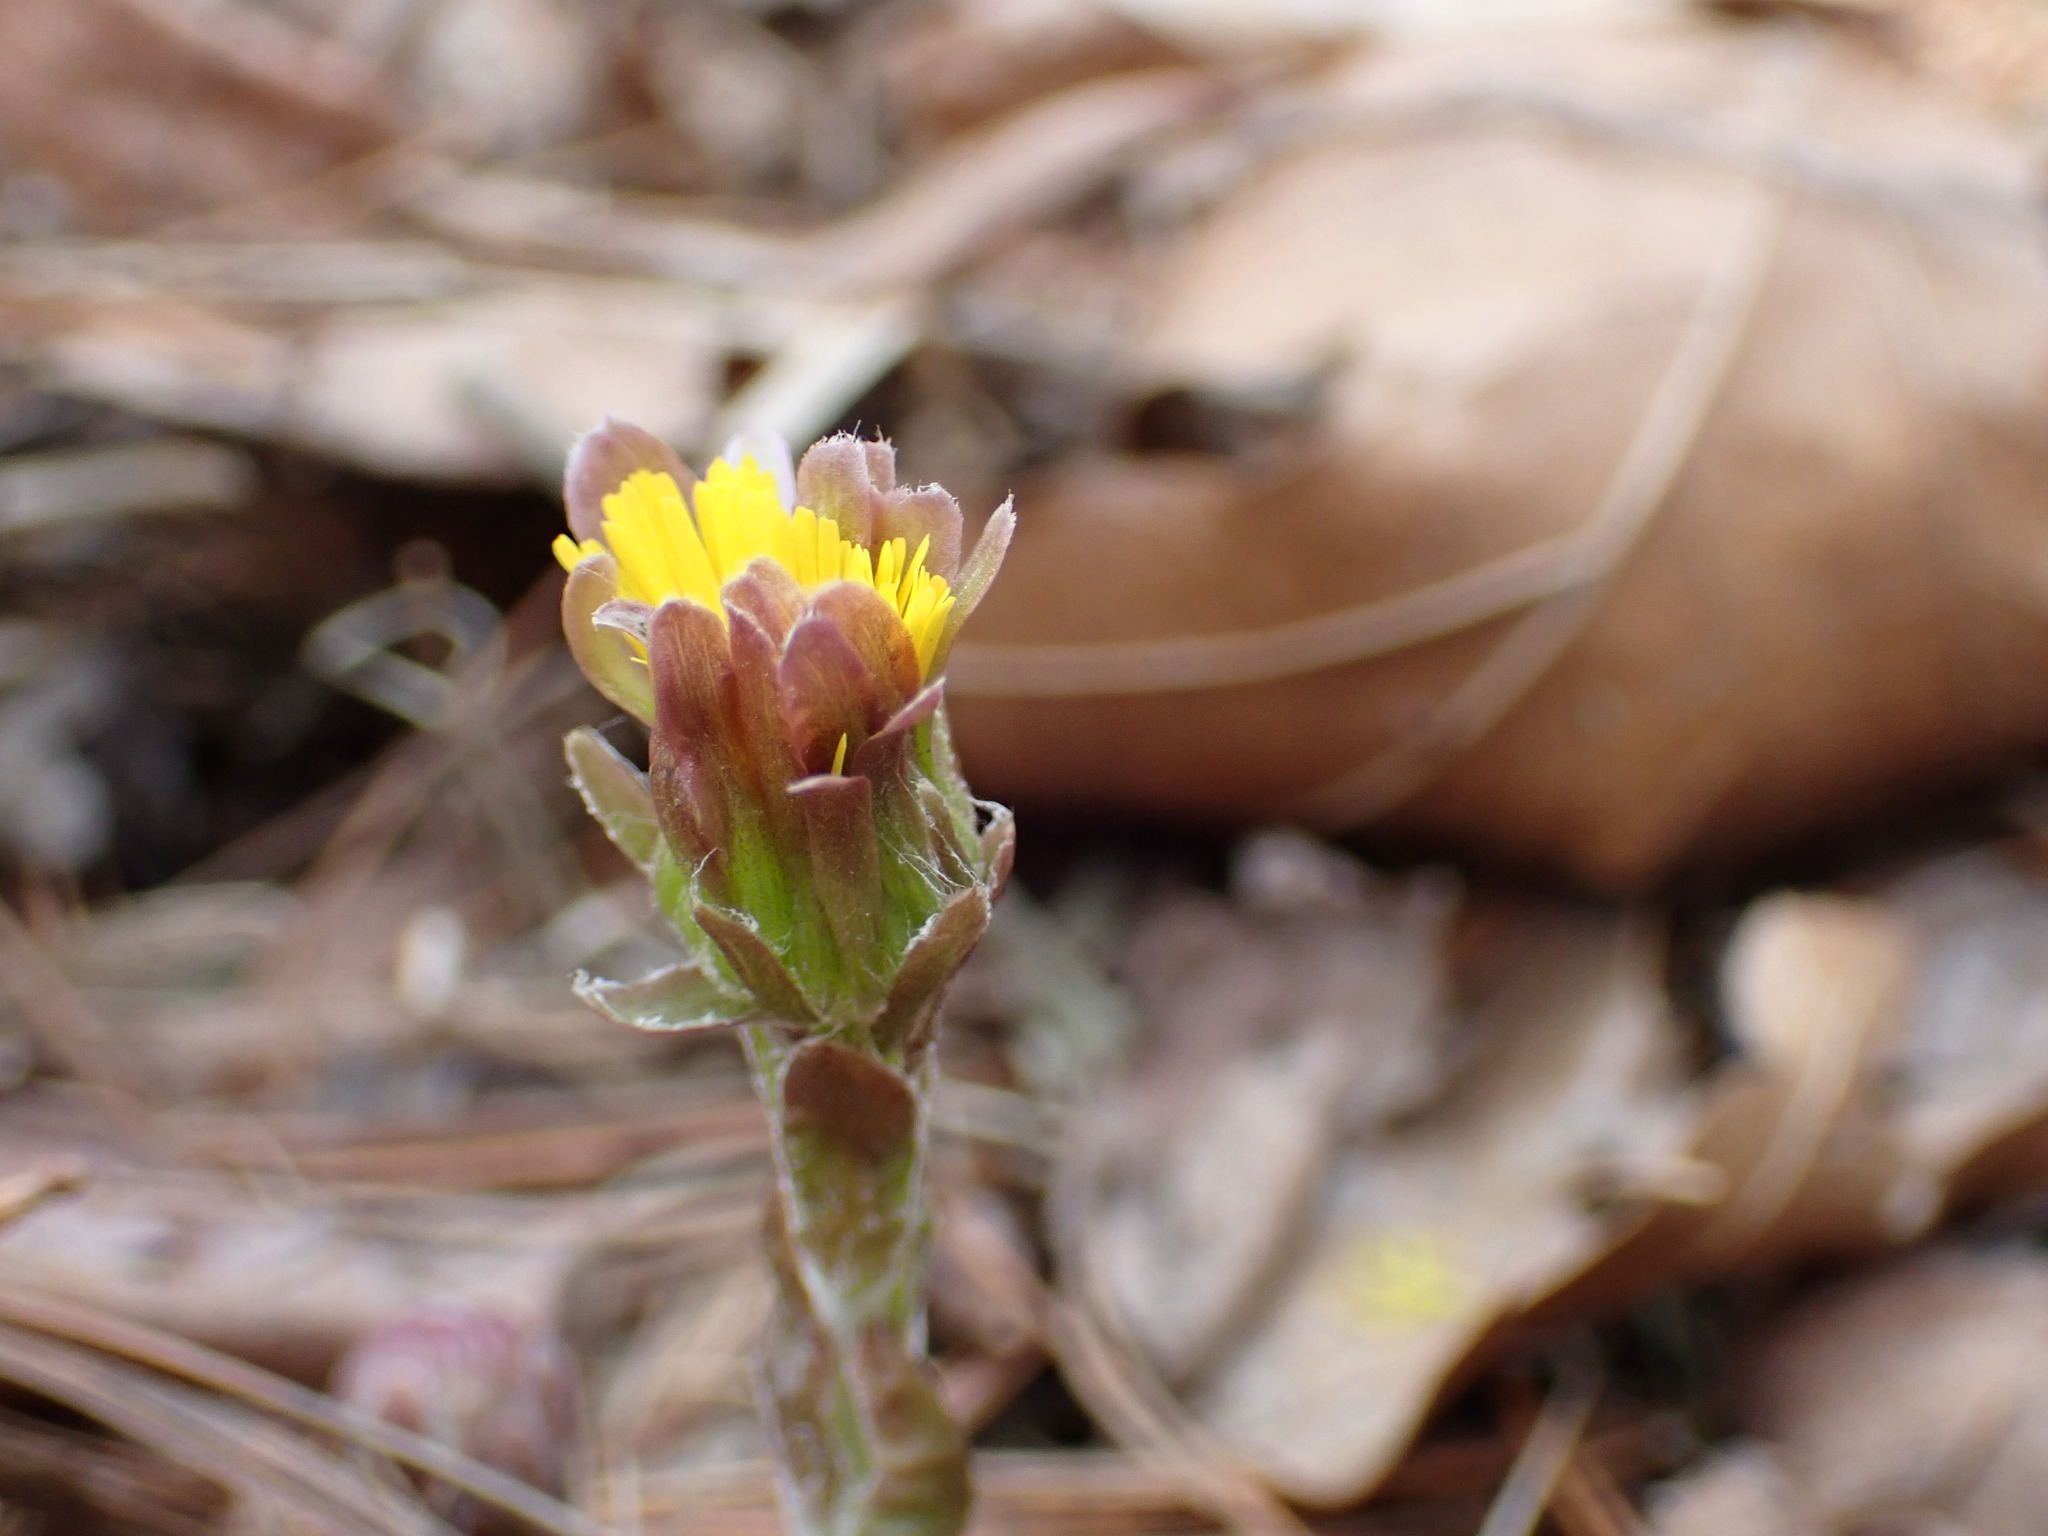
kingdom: Plantae
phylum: Tracheophyta
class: Magnoliopsida
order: Asterales
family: Asteraceae
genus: Tussilago
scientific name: Tussilago farfara
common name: Coltsfoot
